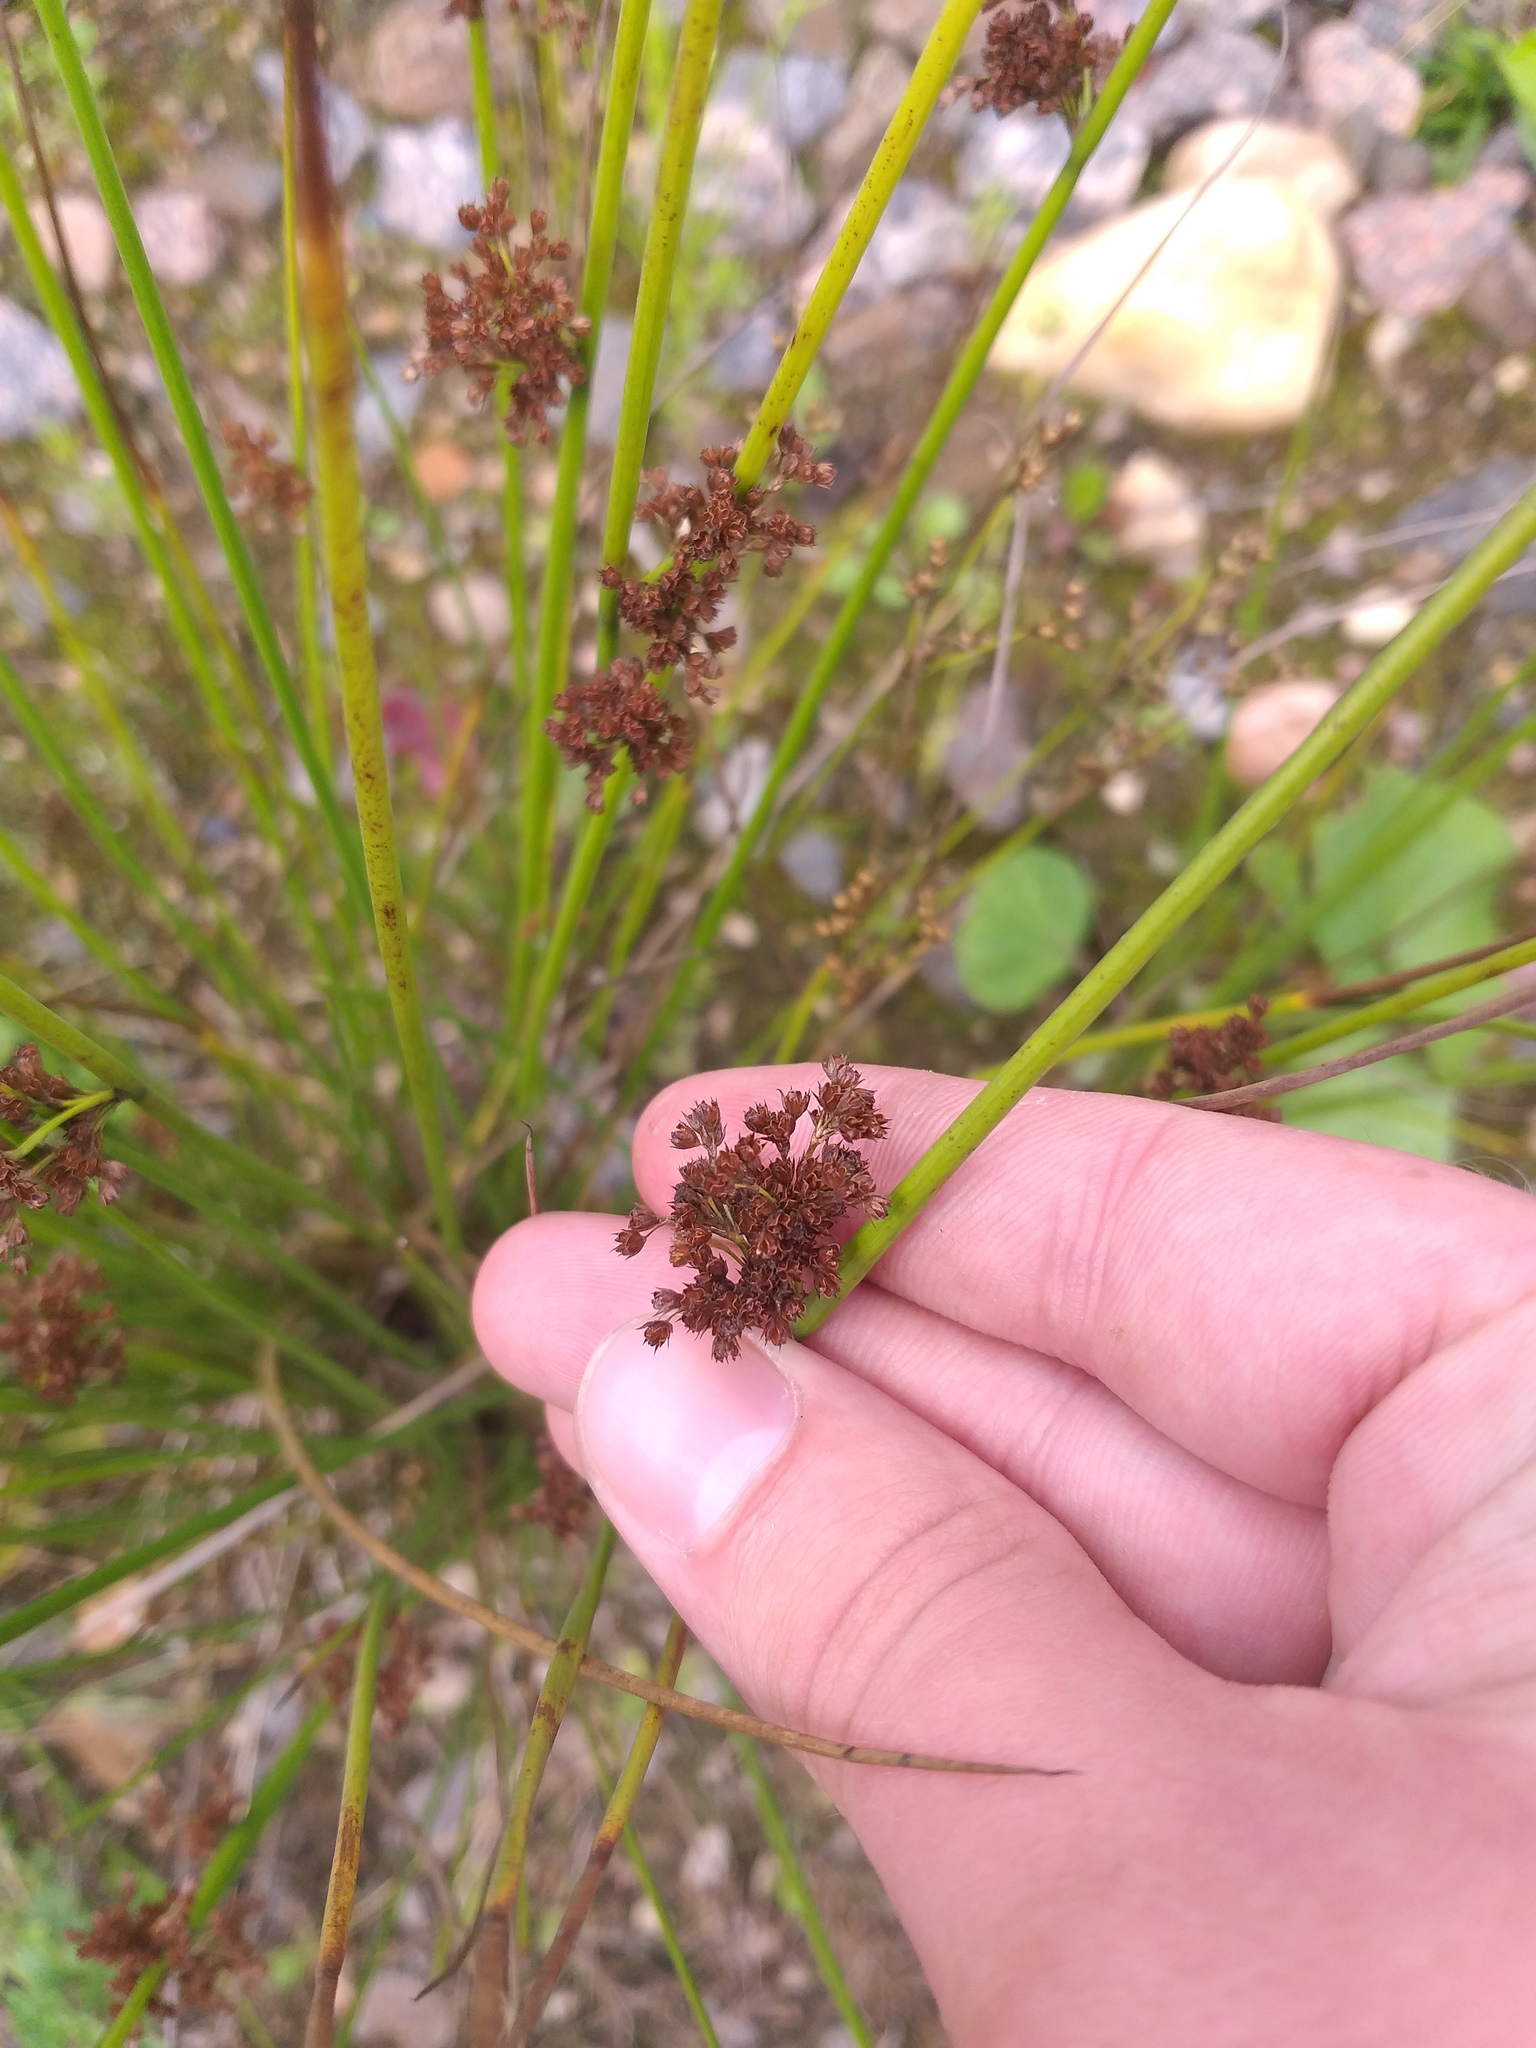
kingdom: Plantae
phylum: Tracheophyta
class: Liliopsida
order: Poales
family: Juncaceae
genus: Juncus
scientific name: Juncus effusus
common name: Soft rush
